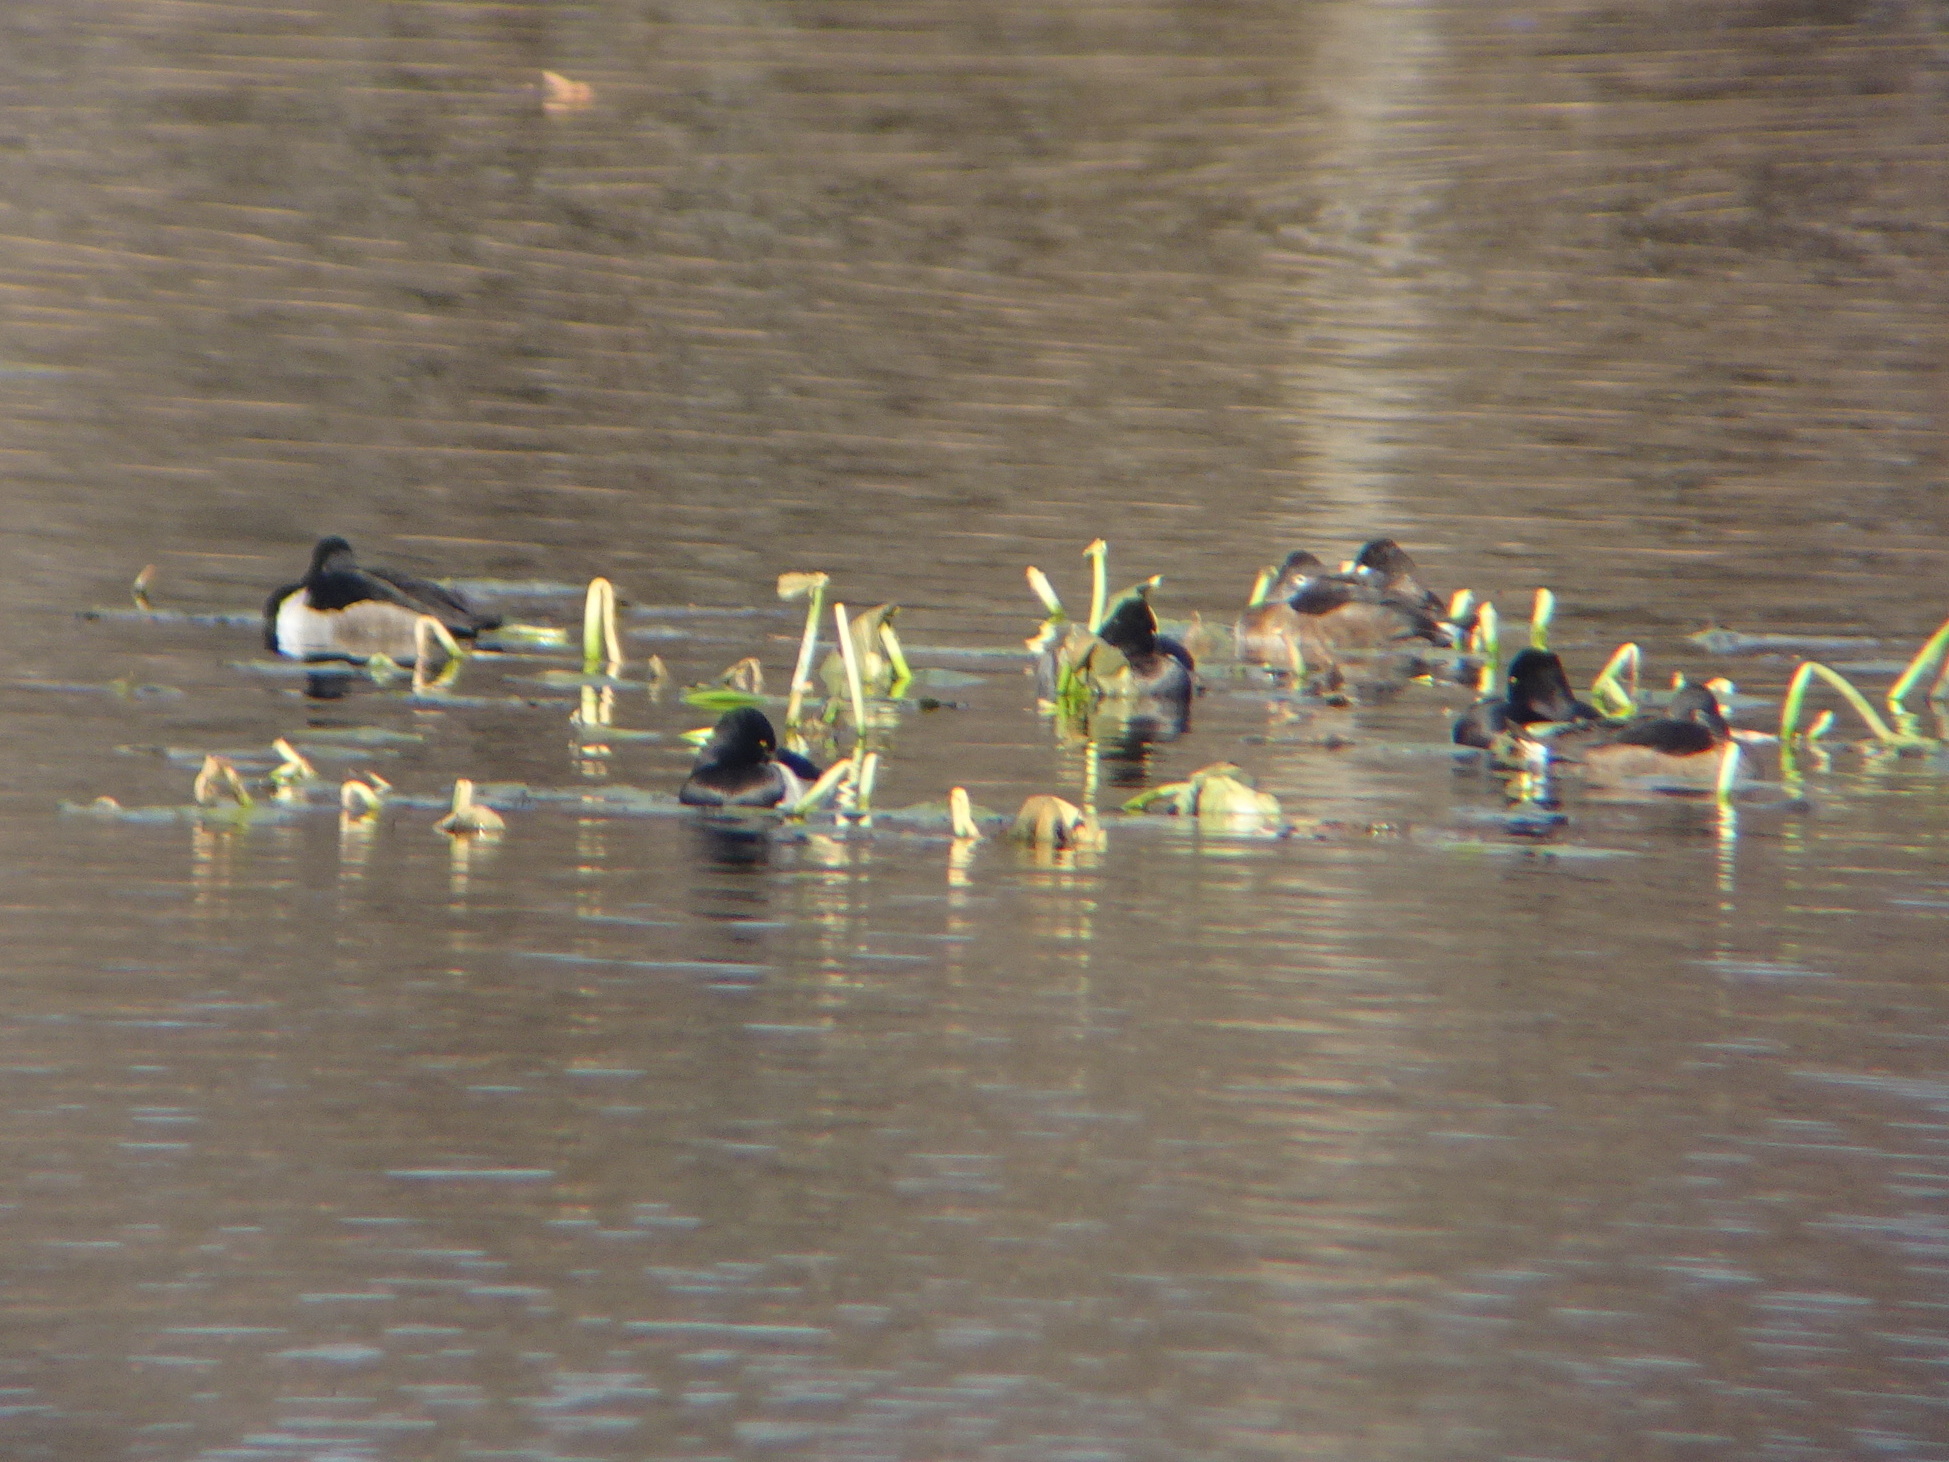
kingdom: Animalia
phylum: Chordata
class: Aves
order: Anseriformes
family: Anatidae
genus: Aythya
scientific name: Aythya collaris
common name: Ring-necked duck
